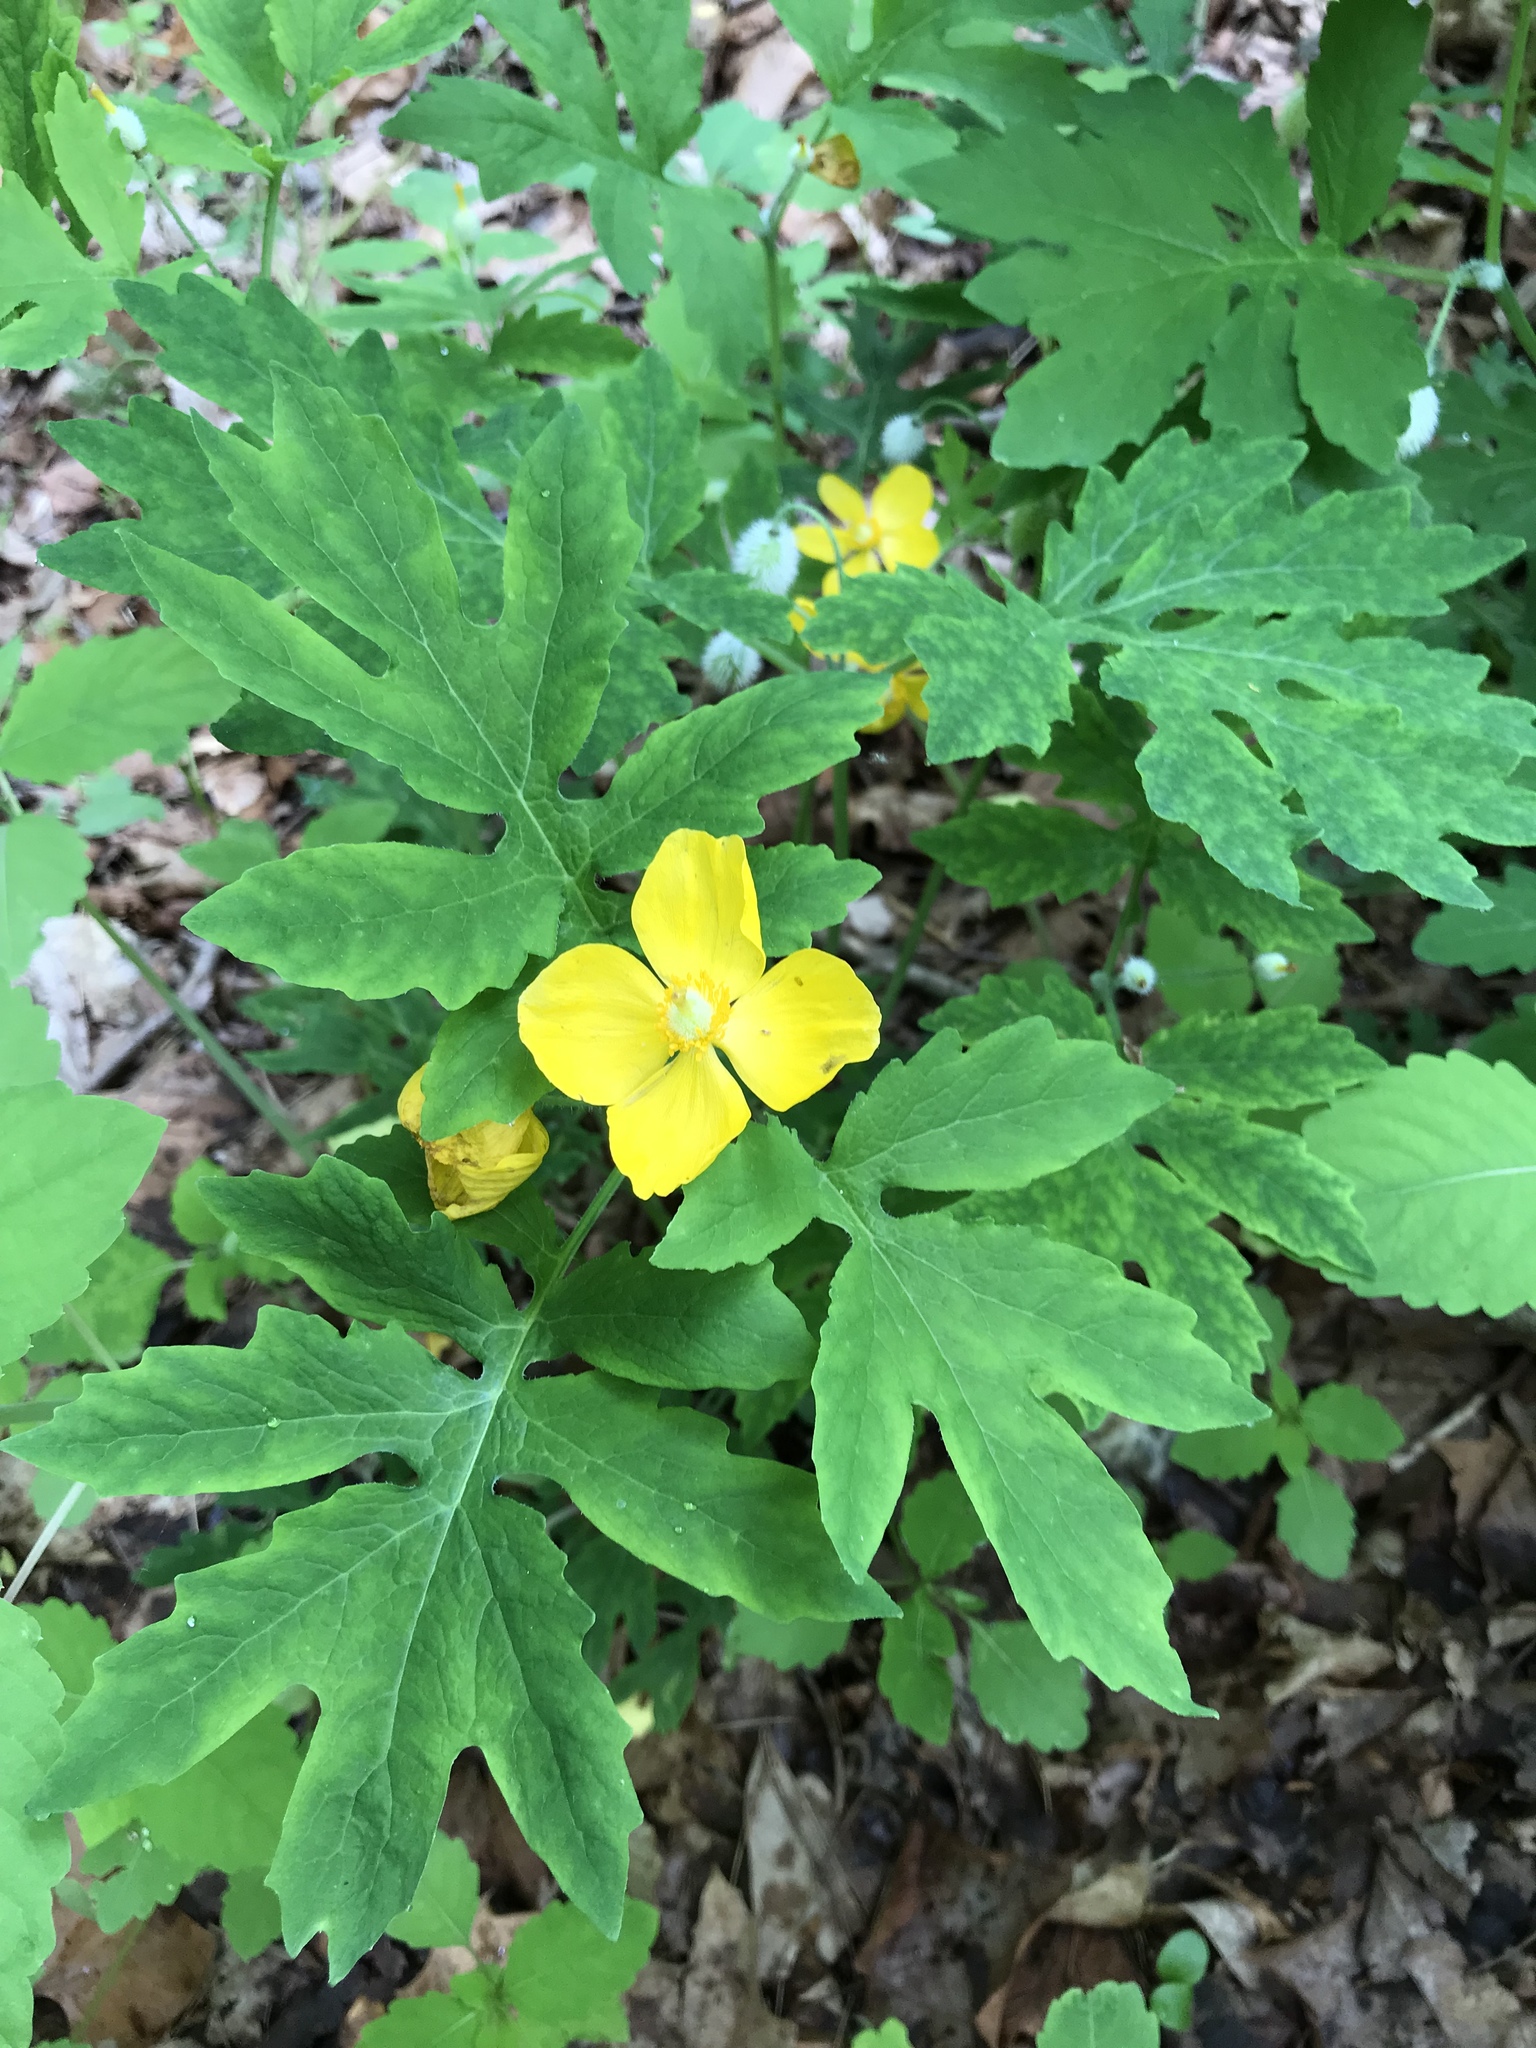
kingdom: Plantae
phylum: Tracheophyta
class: Magnoliopsida
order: Ranunculales
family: Papaveraceae
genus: Stylophorum
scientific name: Stylophorum diphyllum
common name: Celandine poppy
